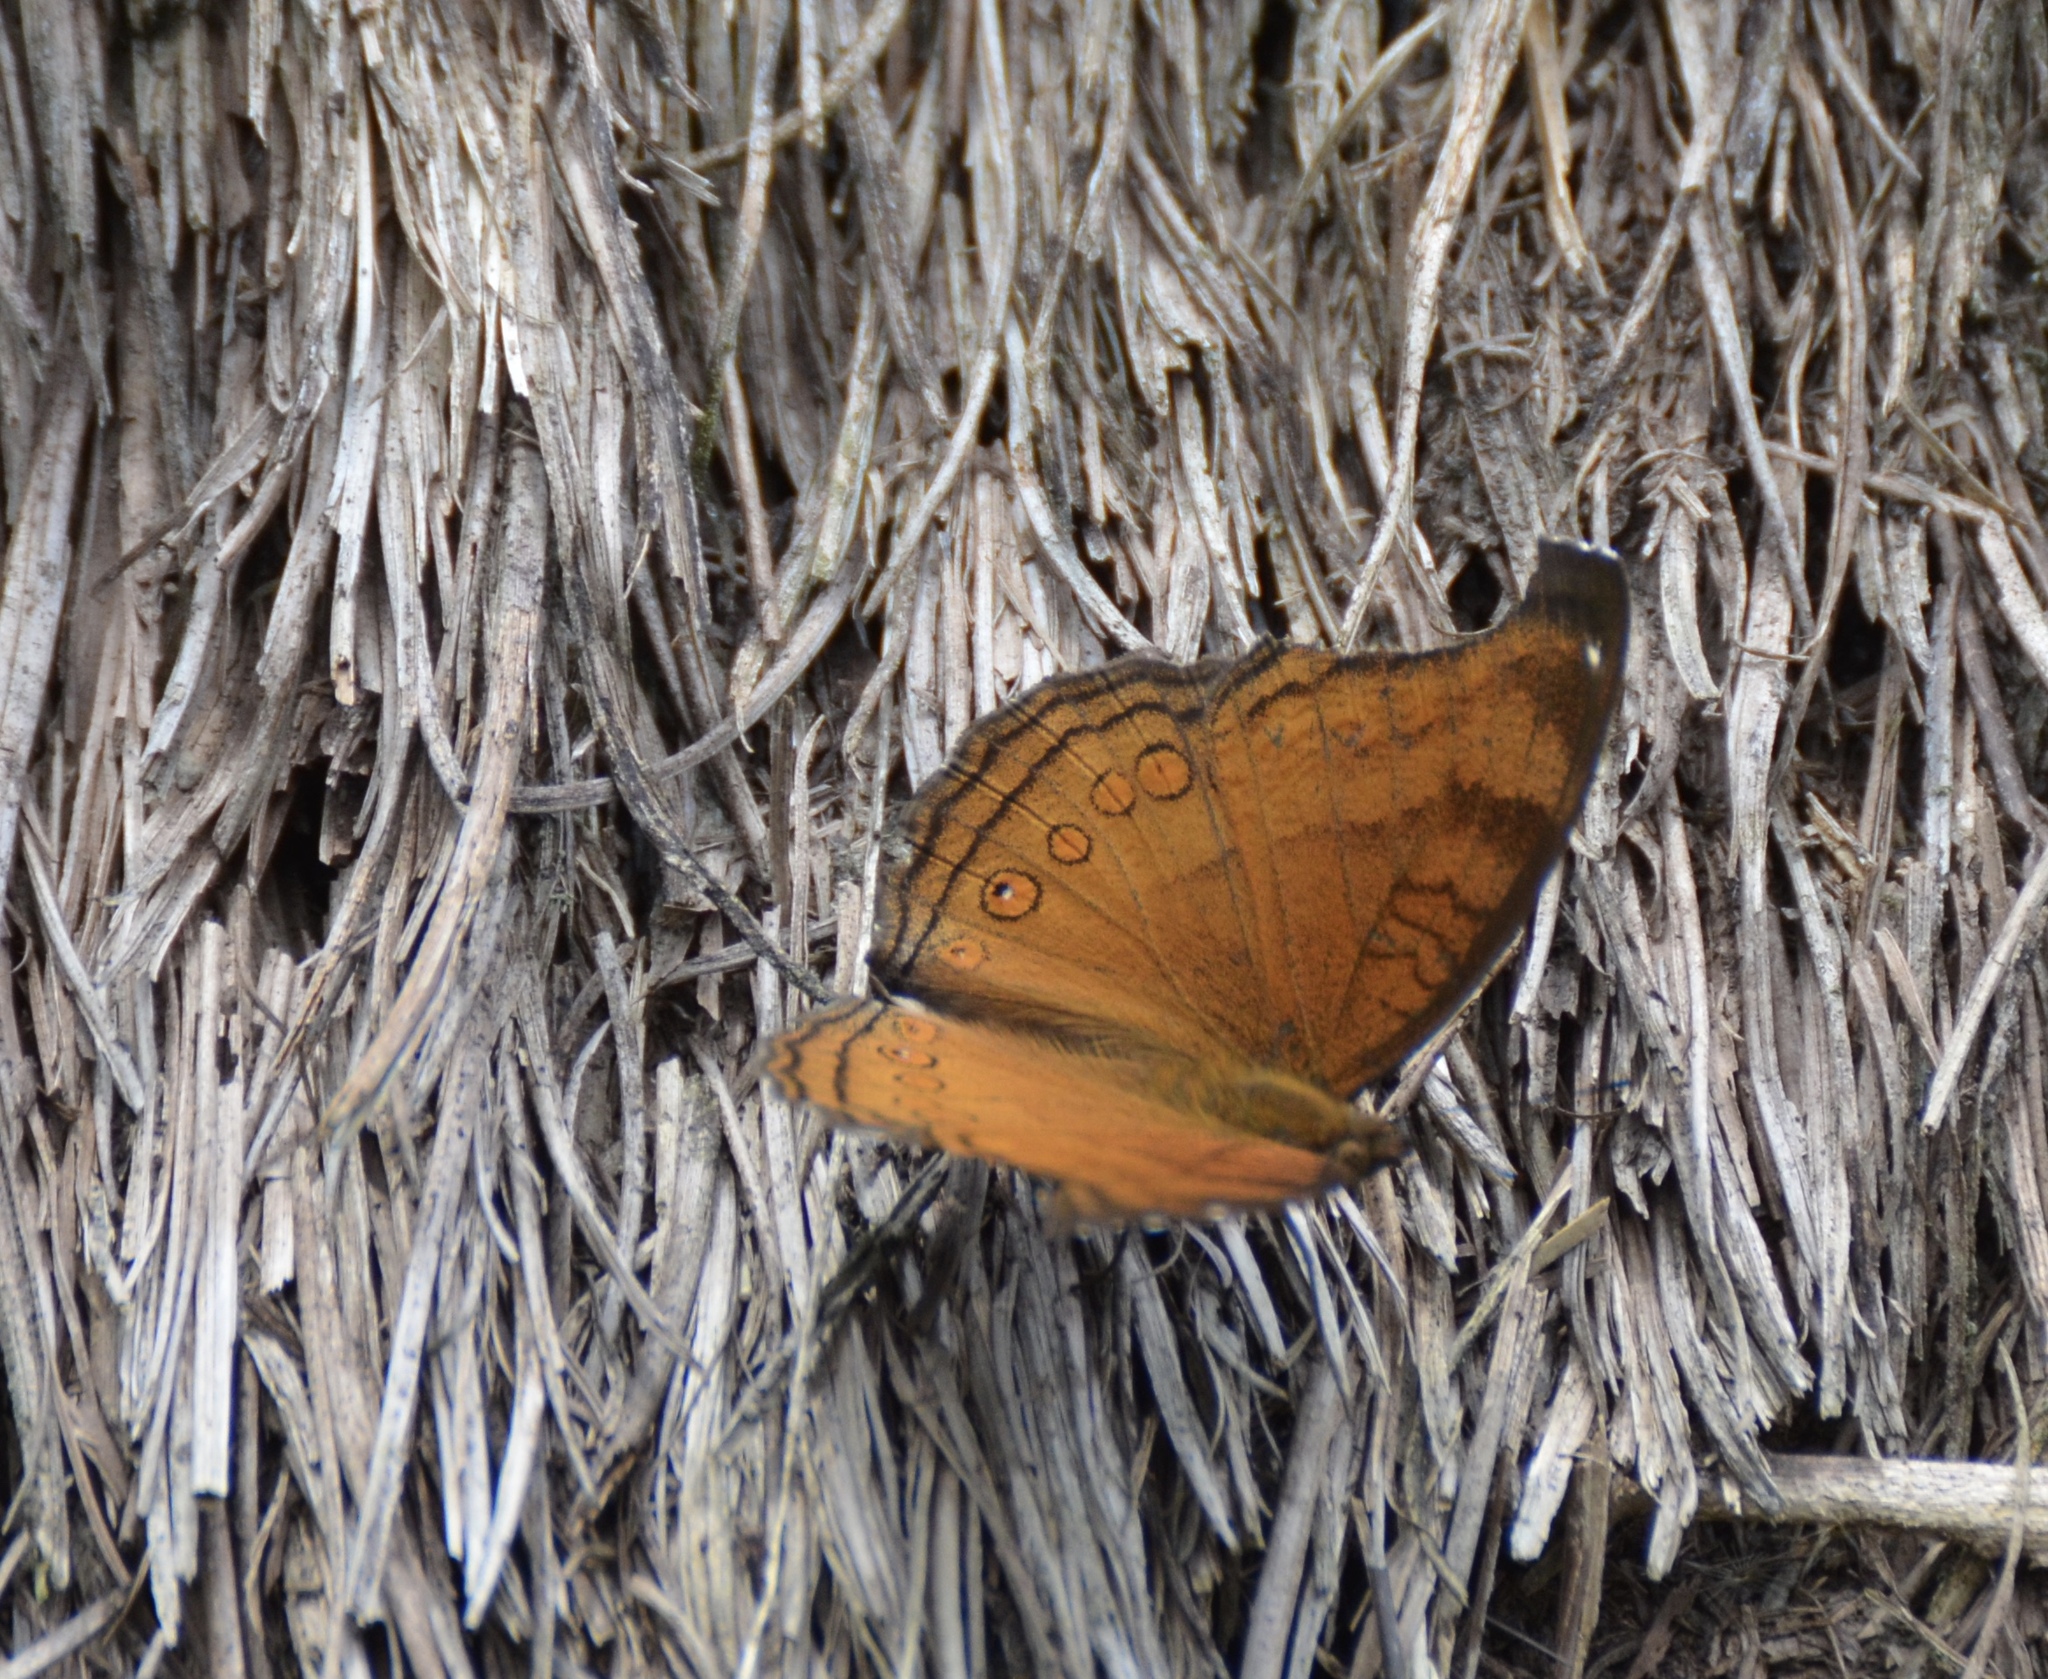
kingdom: Animalia
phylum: Arthropoda
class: Insecta
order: Lepidoptera
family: Nymphalidae
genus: Junonia
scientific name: Junonia hedonia
